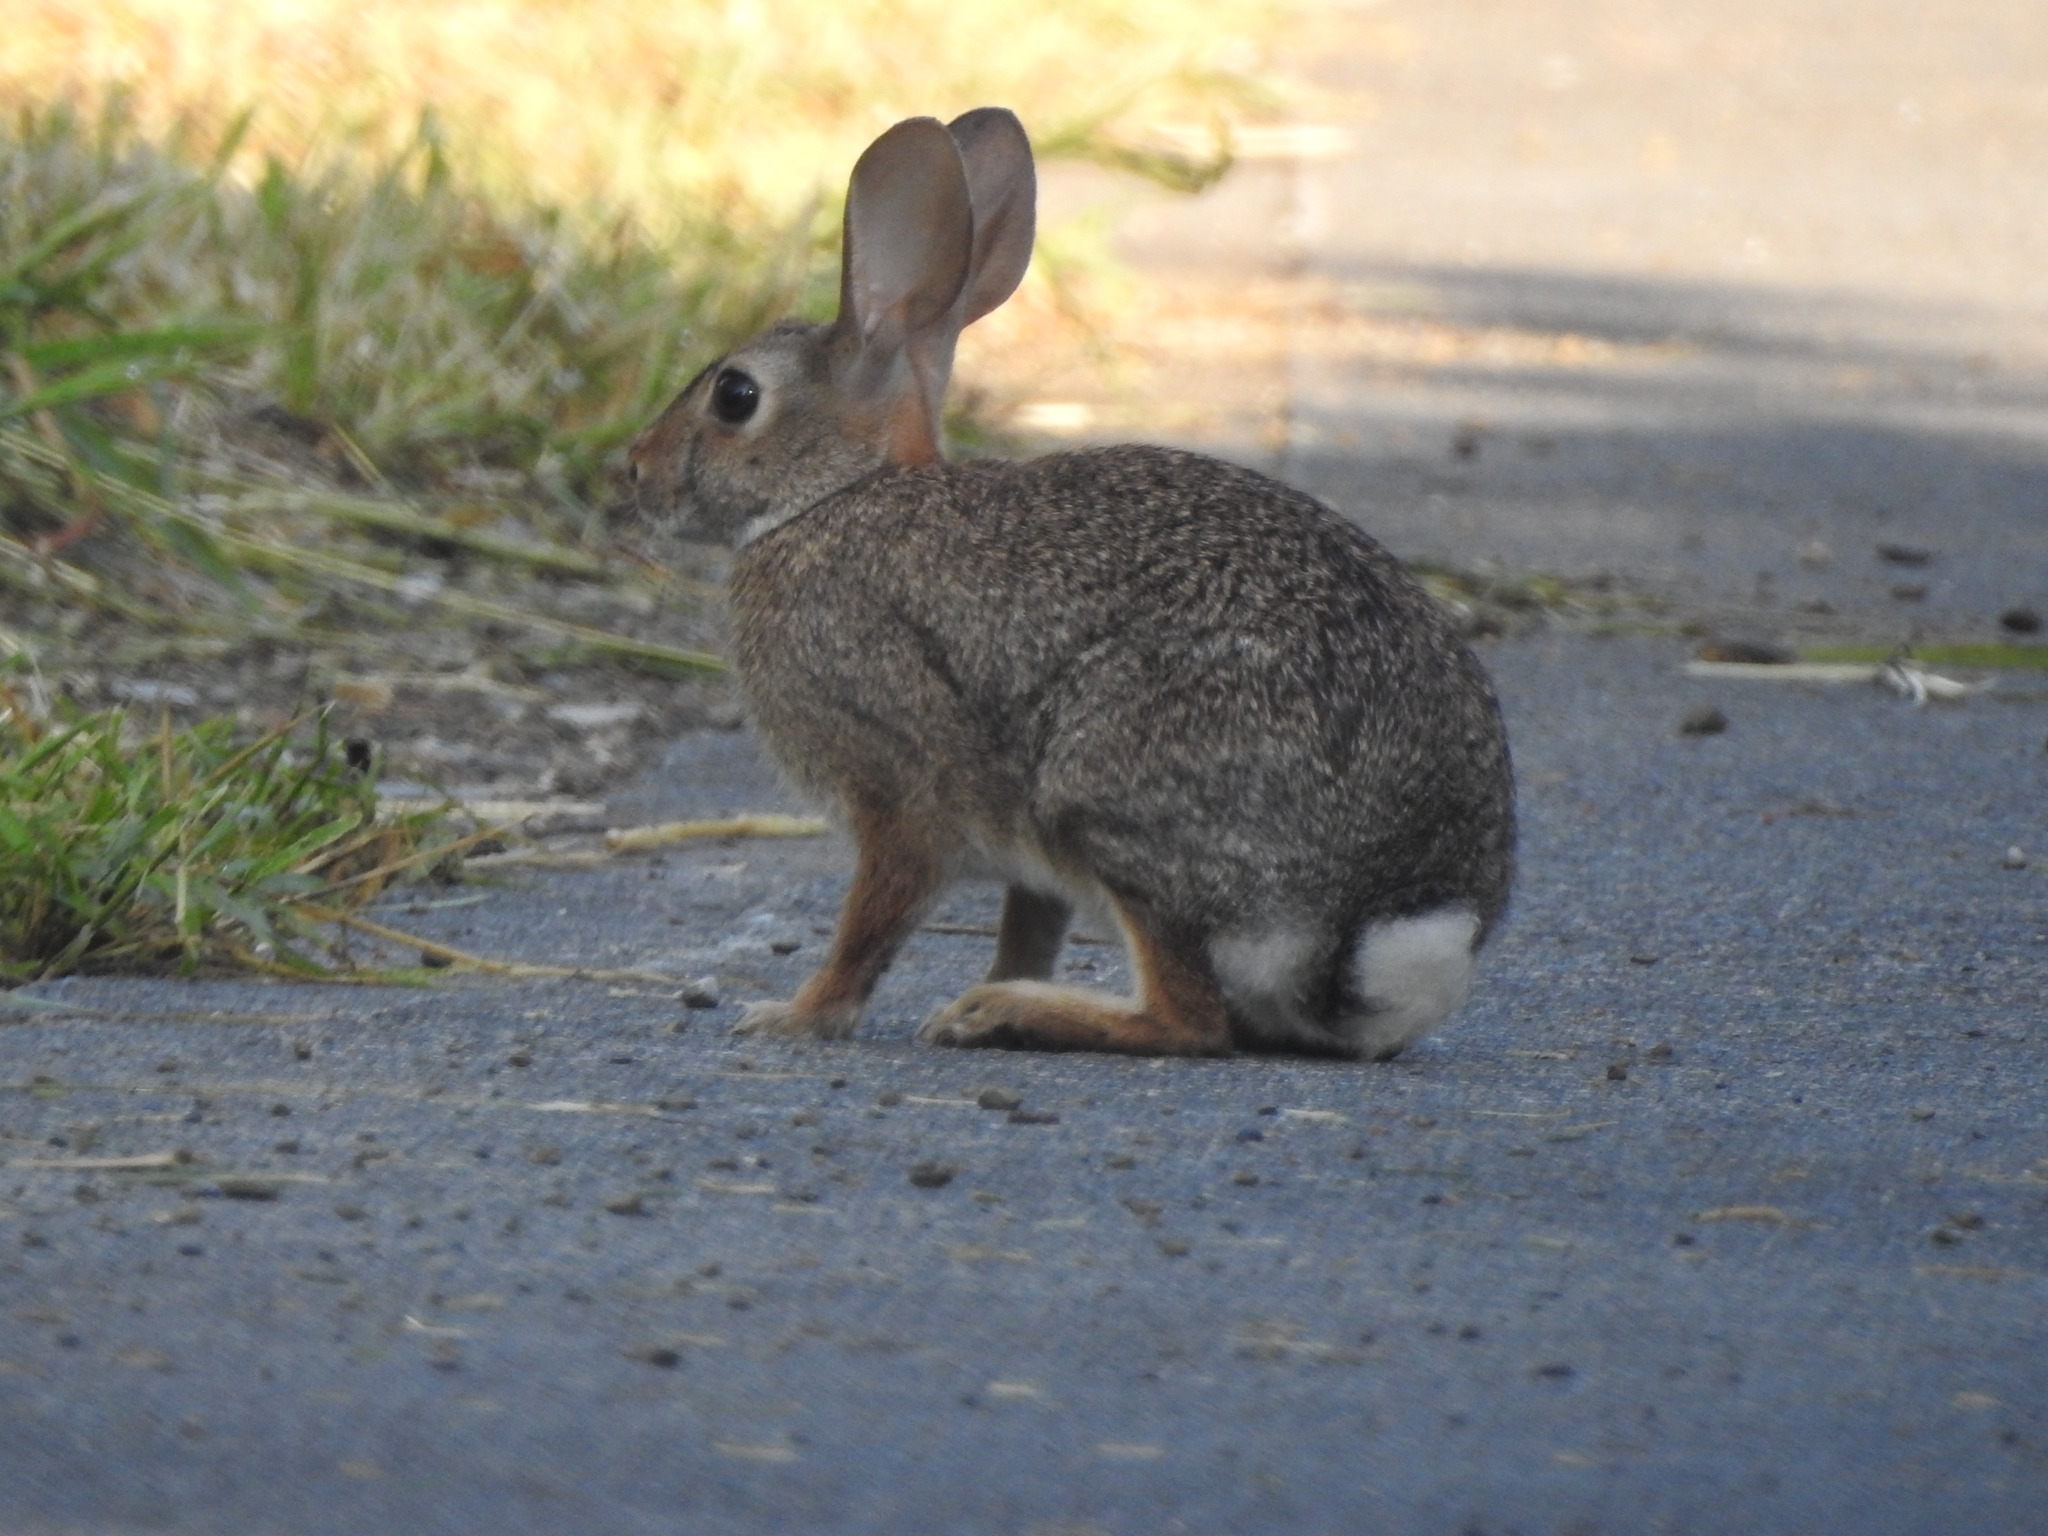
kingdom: Animalia
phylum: Chordata
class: Mammalia
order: Lagomorpha
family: Leporidae
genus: Sylvilagus
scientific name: Sylvilagus audubonii
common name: Desert cottontail
